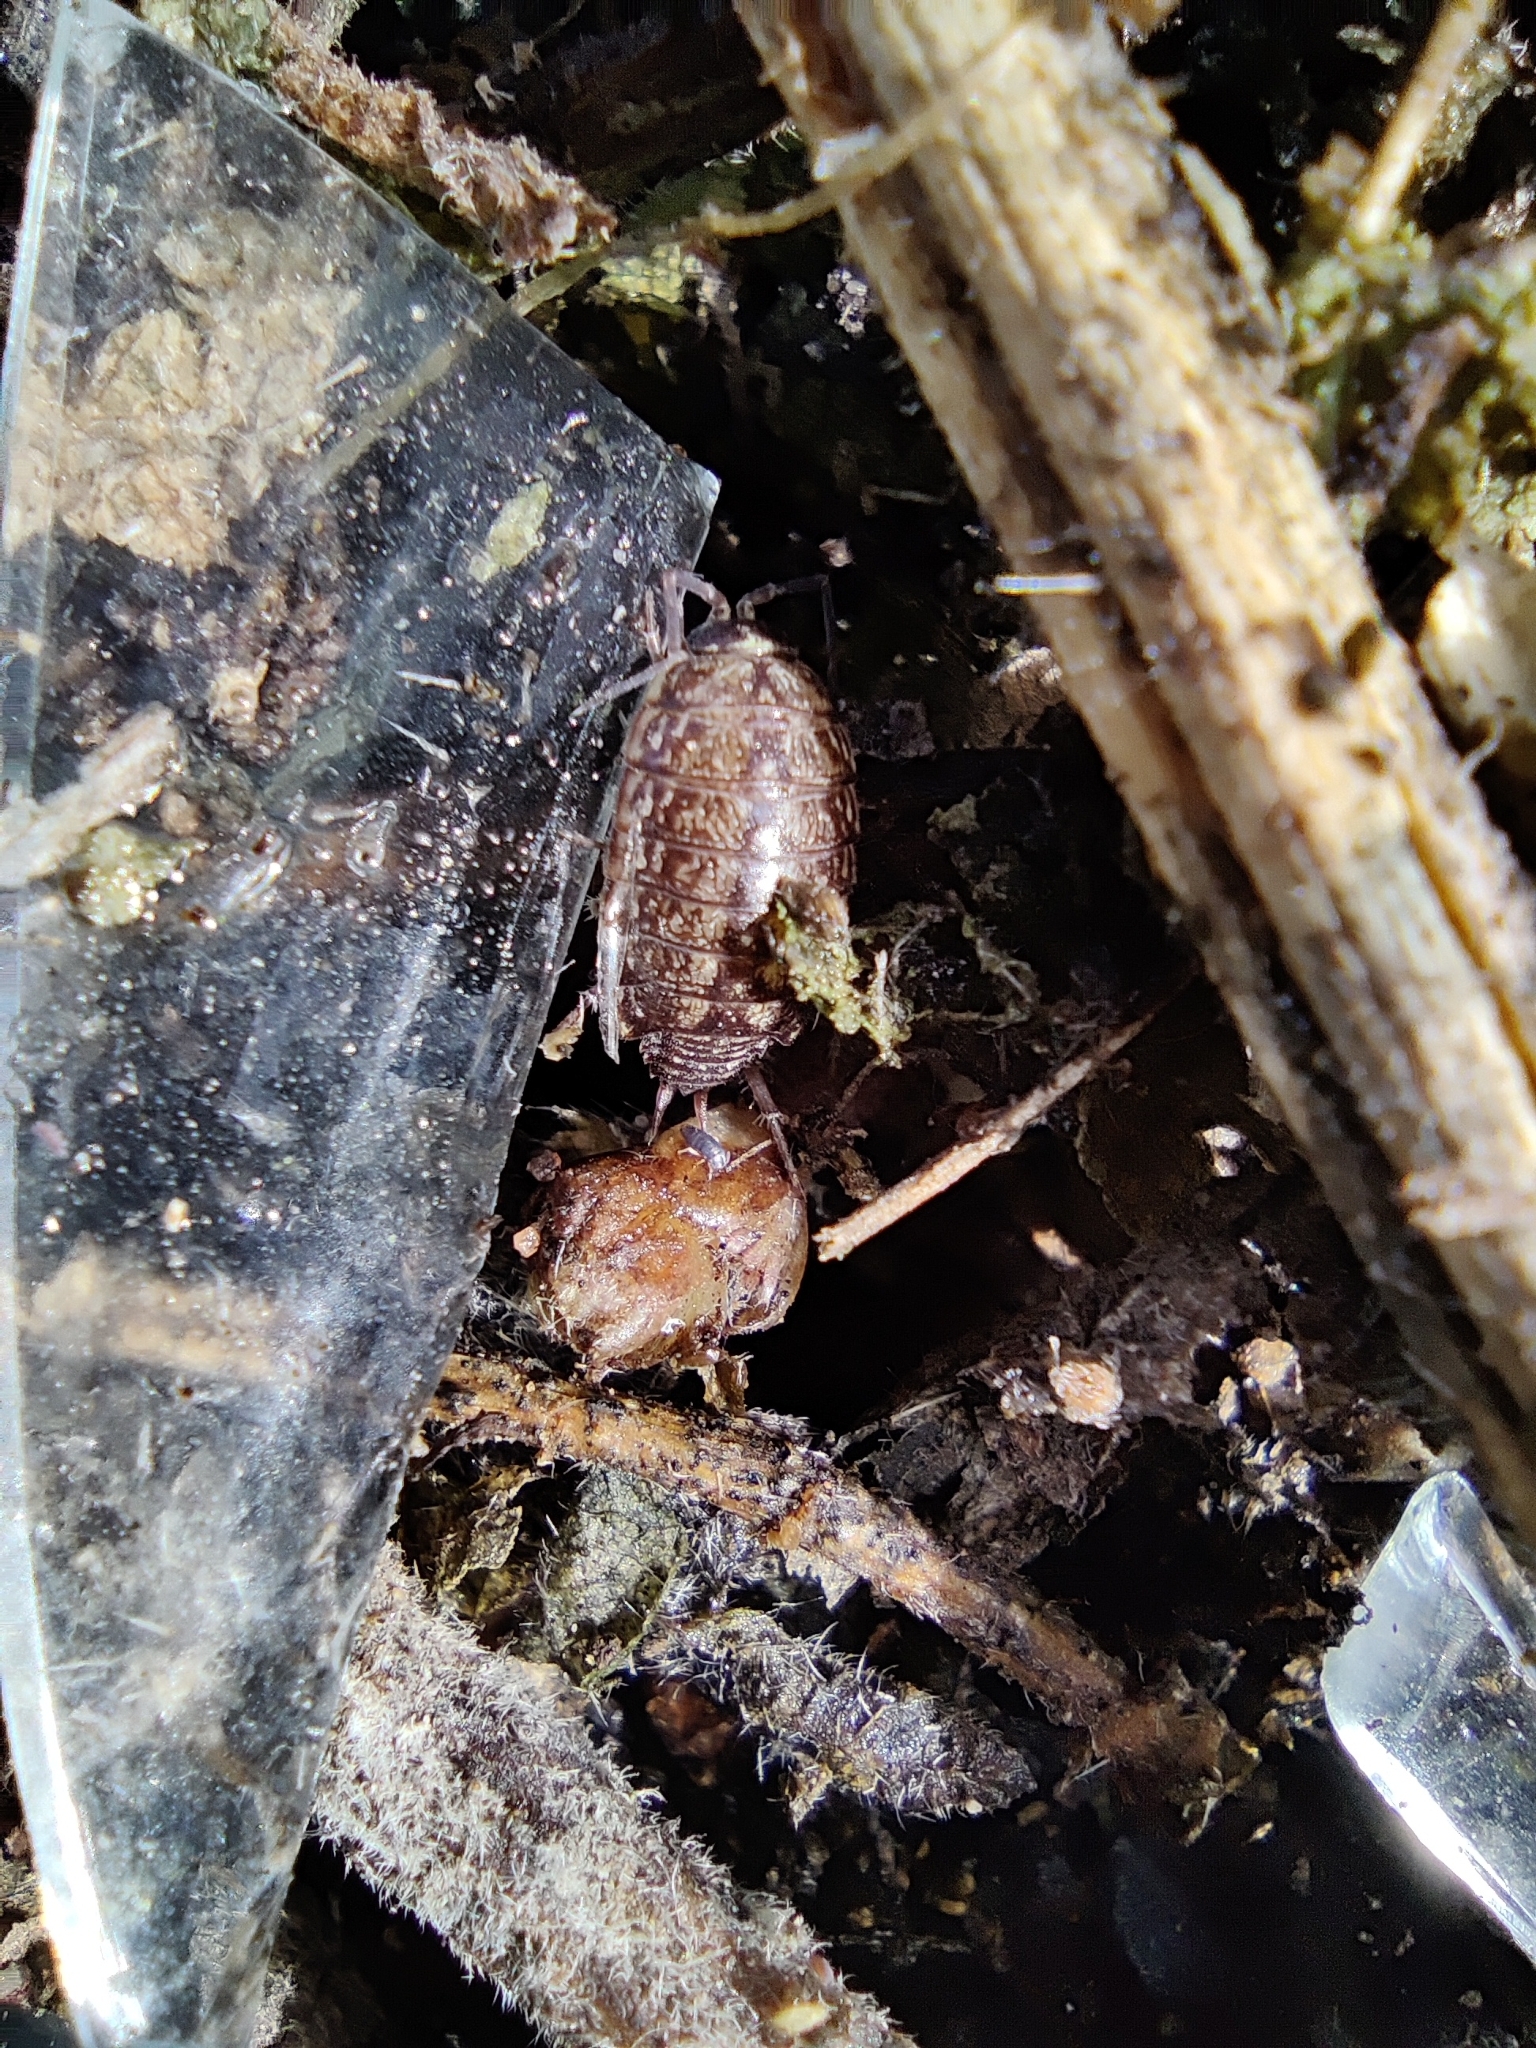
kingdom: Animalia
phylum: Arthropoda
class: Malacostraca
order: Isopoda
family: Philosciidae
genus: Philoscia
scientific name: Philoscia muscorum
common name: Common striped woodlouse
